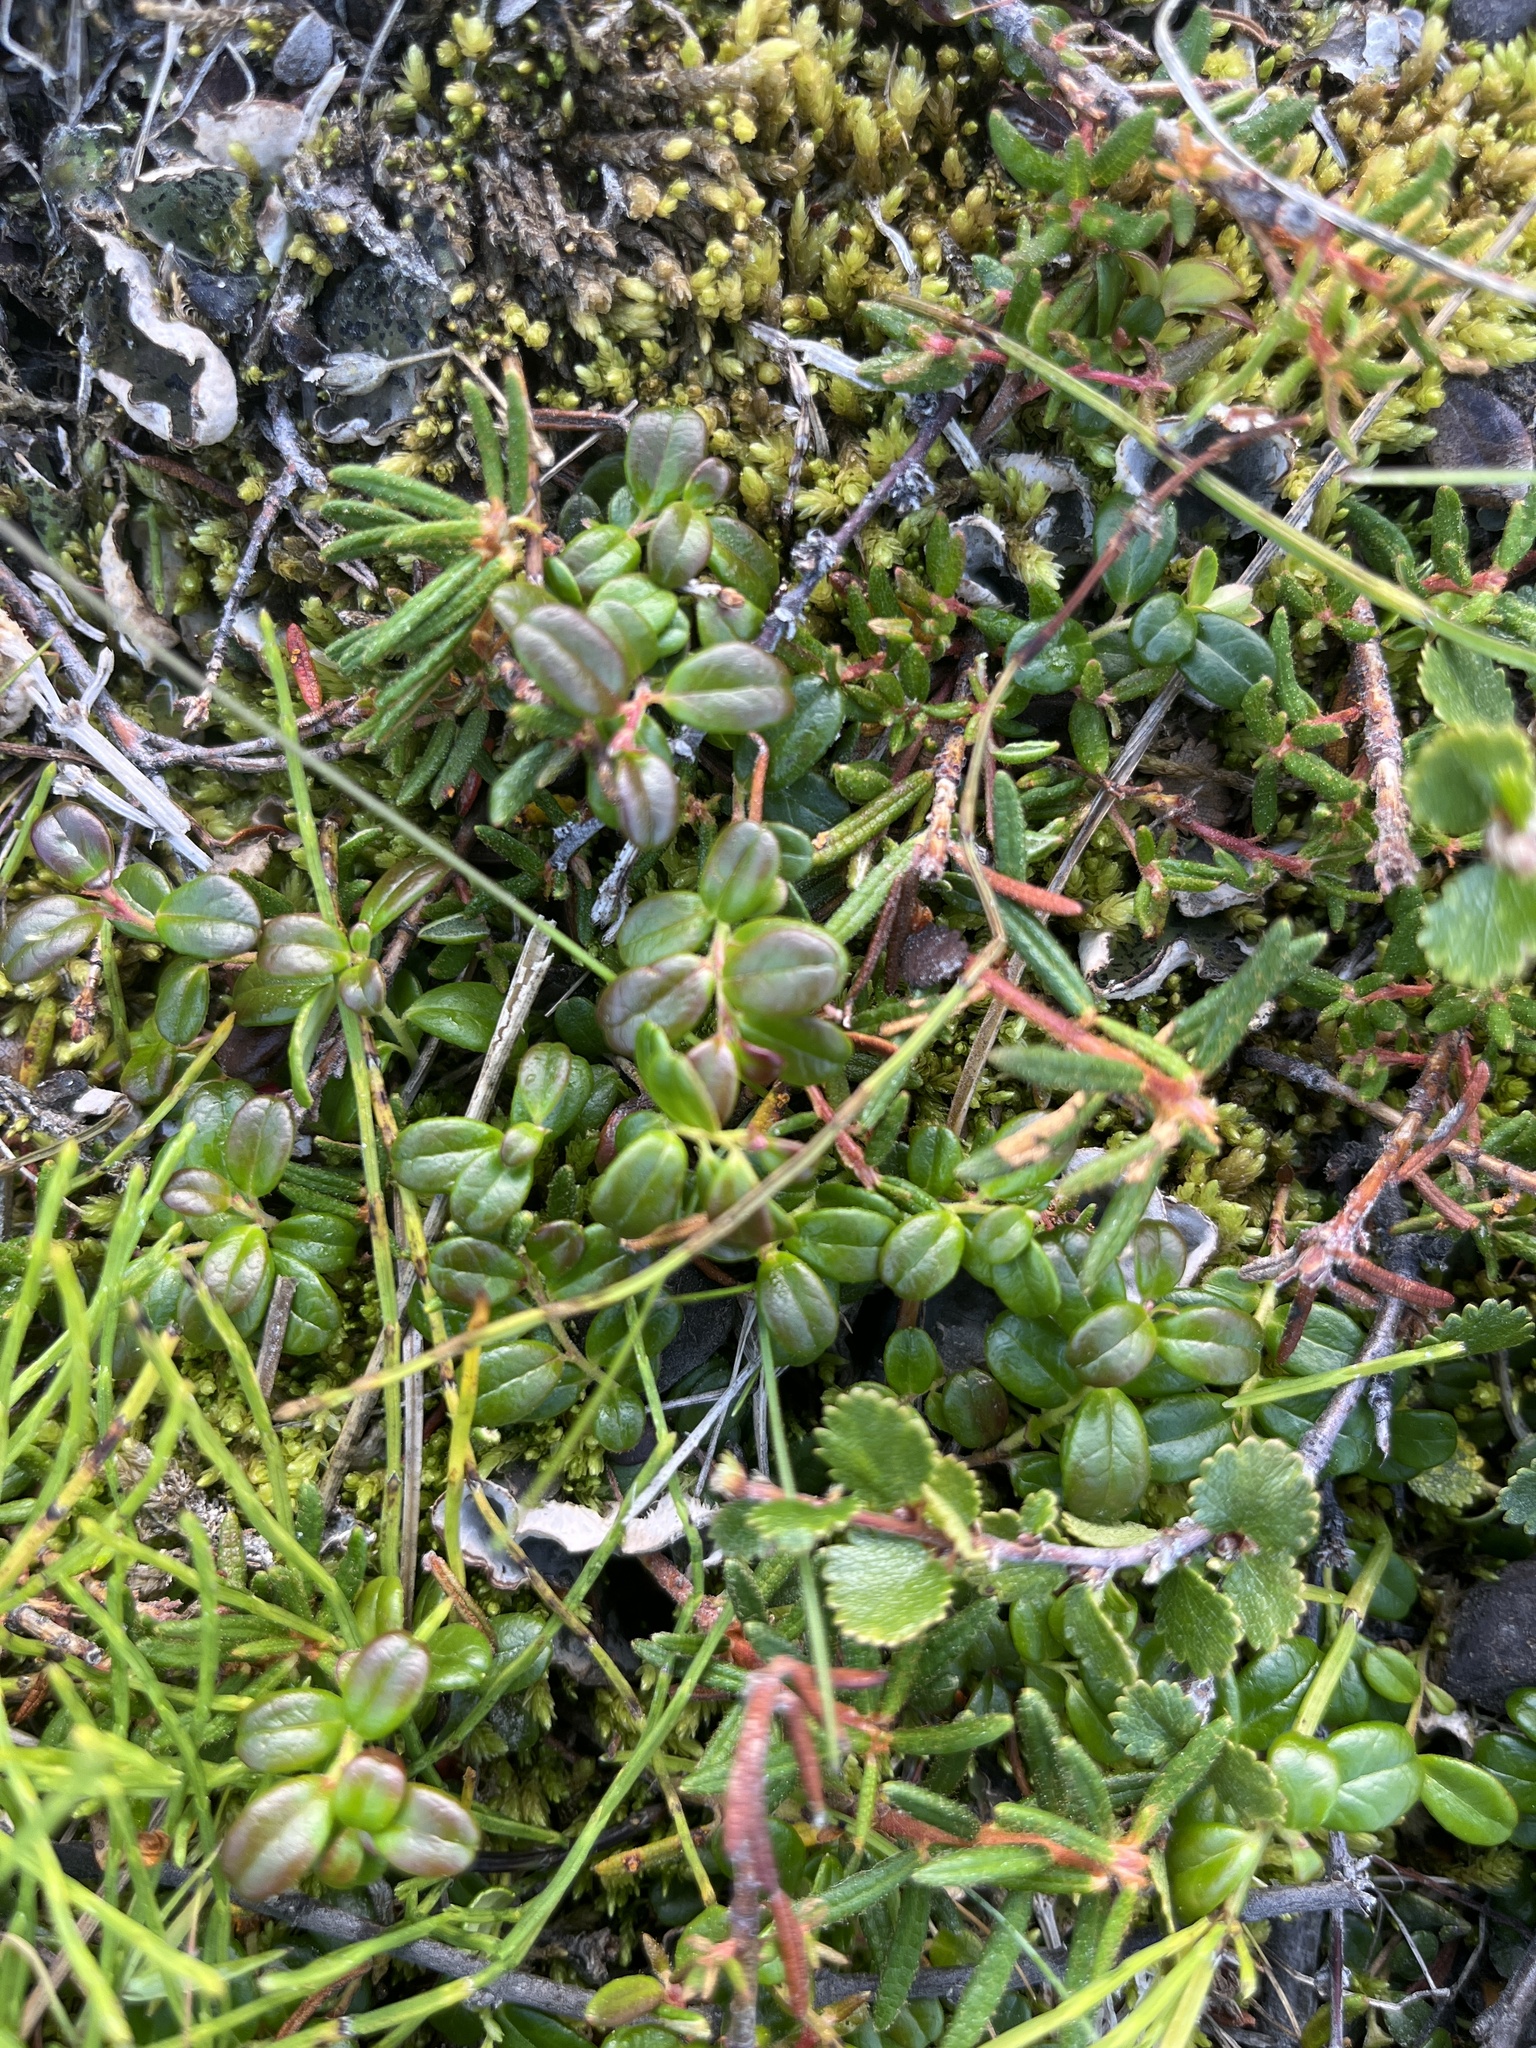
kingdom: Plantae
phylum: Tracheophyta
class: Magnoliopsida
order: Ericales
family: Ericaceae
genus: Vaccinium
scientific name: Vaccinium vitis-idaea
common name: Cowberry
